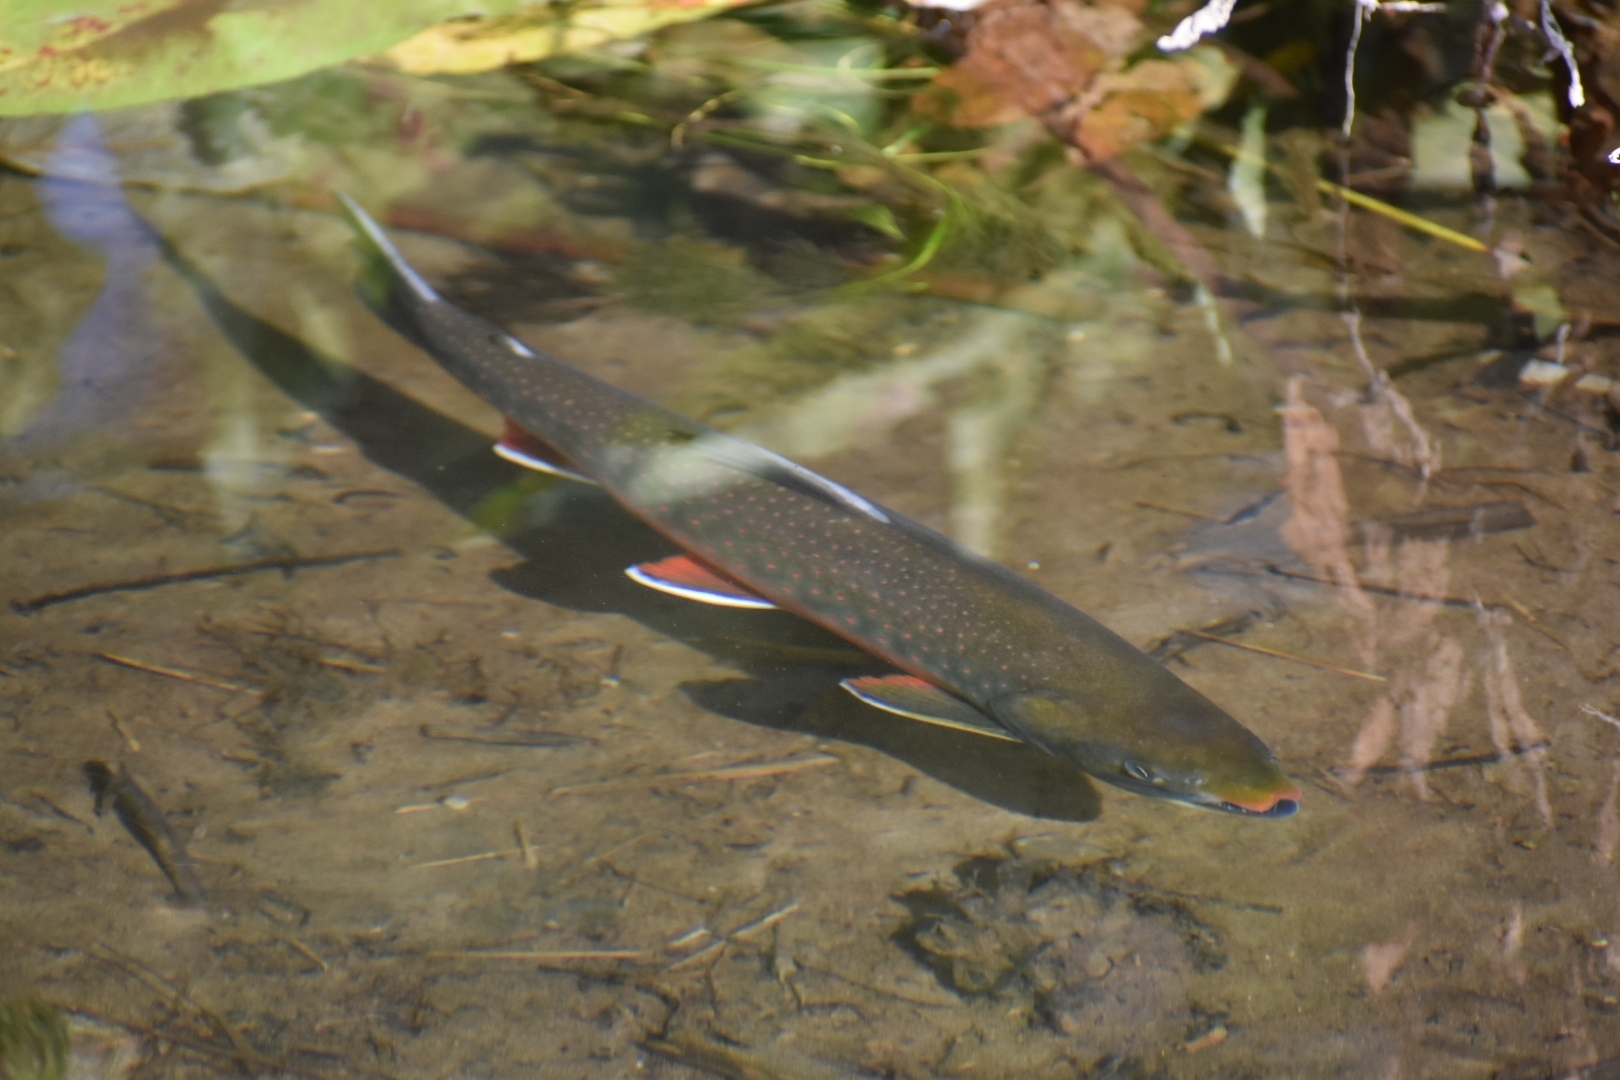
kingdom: Animalia
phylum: Chordata
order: Salmoniformes
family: Salmonidae
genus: Salvelinus
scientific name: Salvelinus malma
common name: Dolly varden charr
